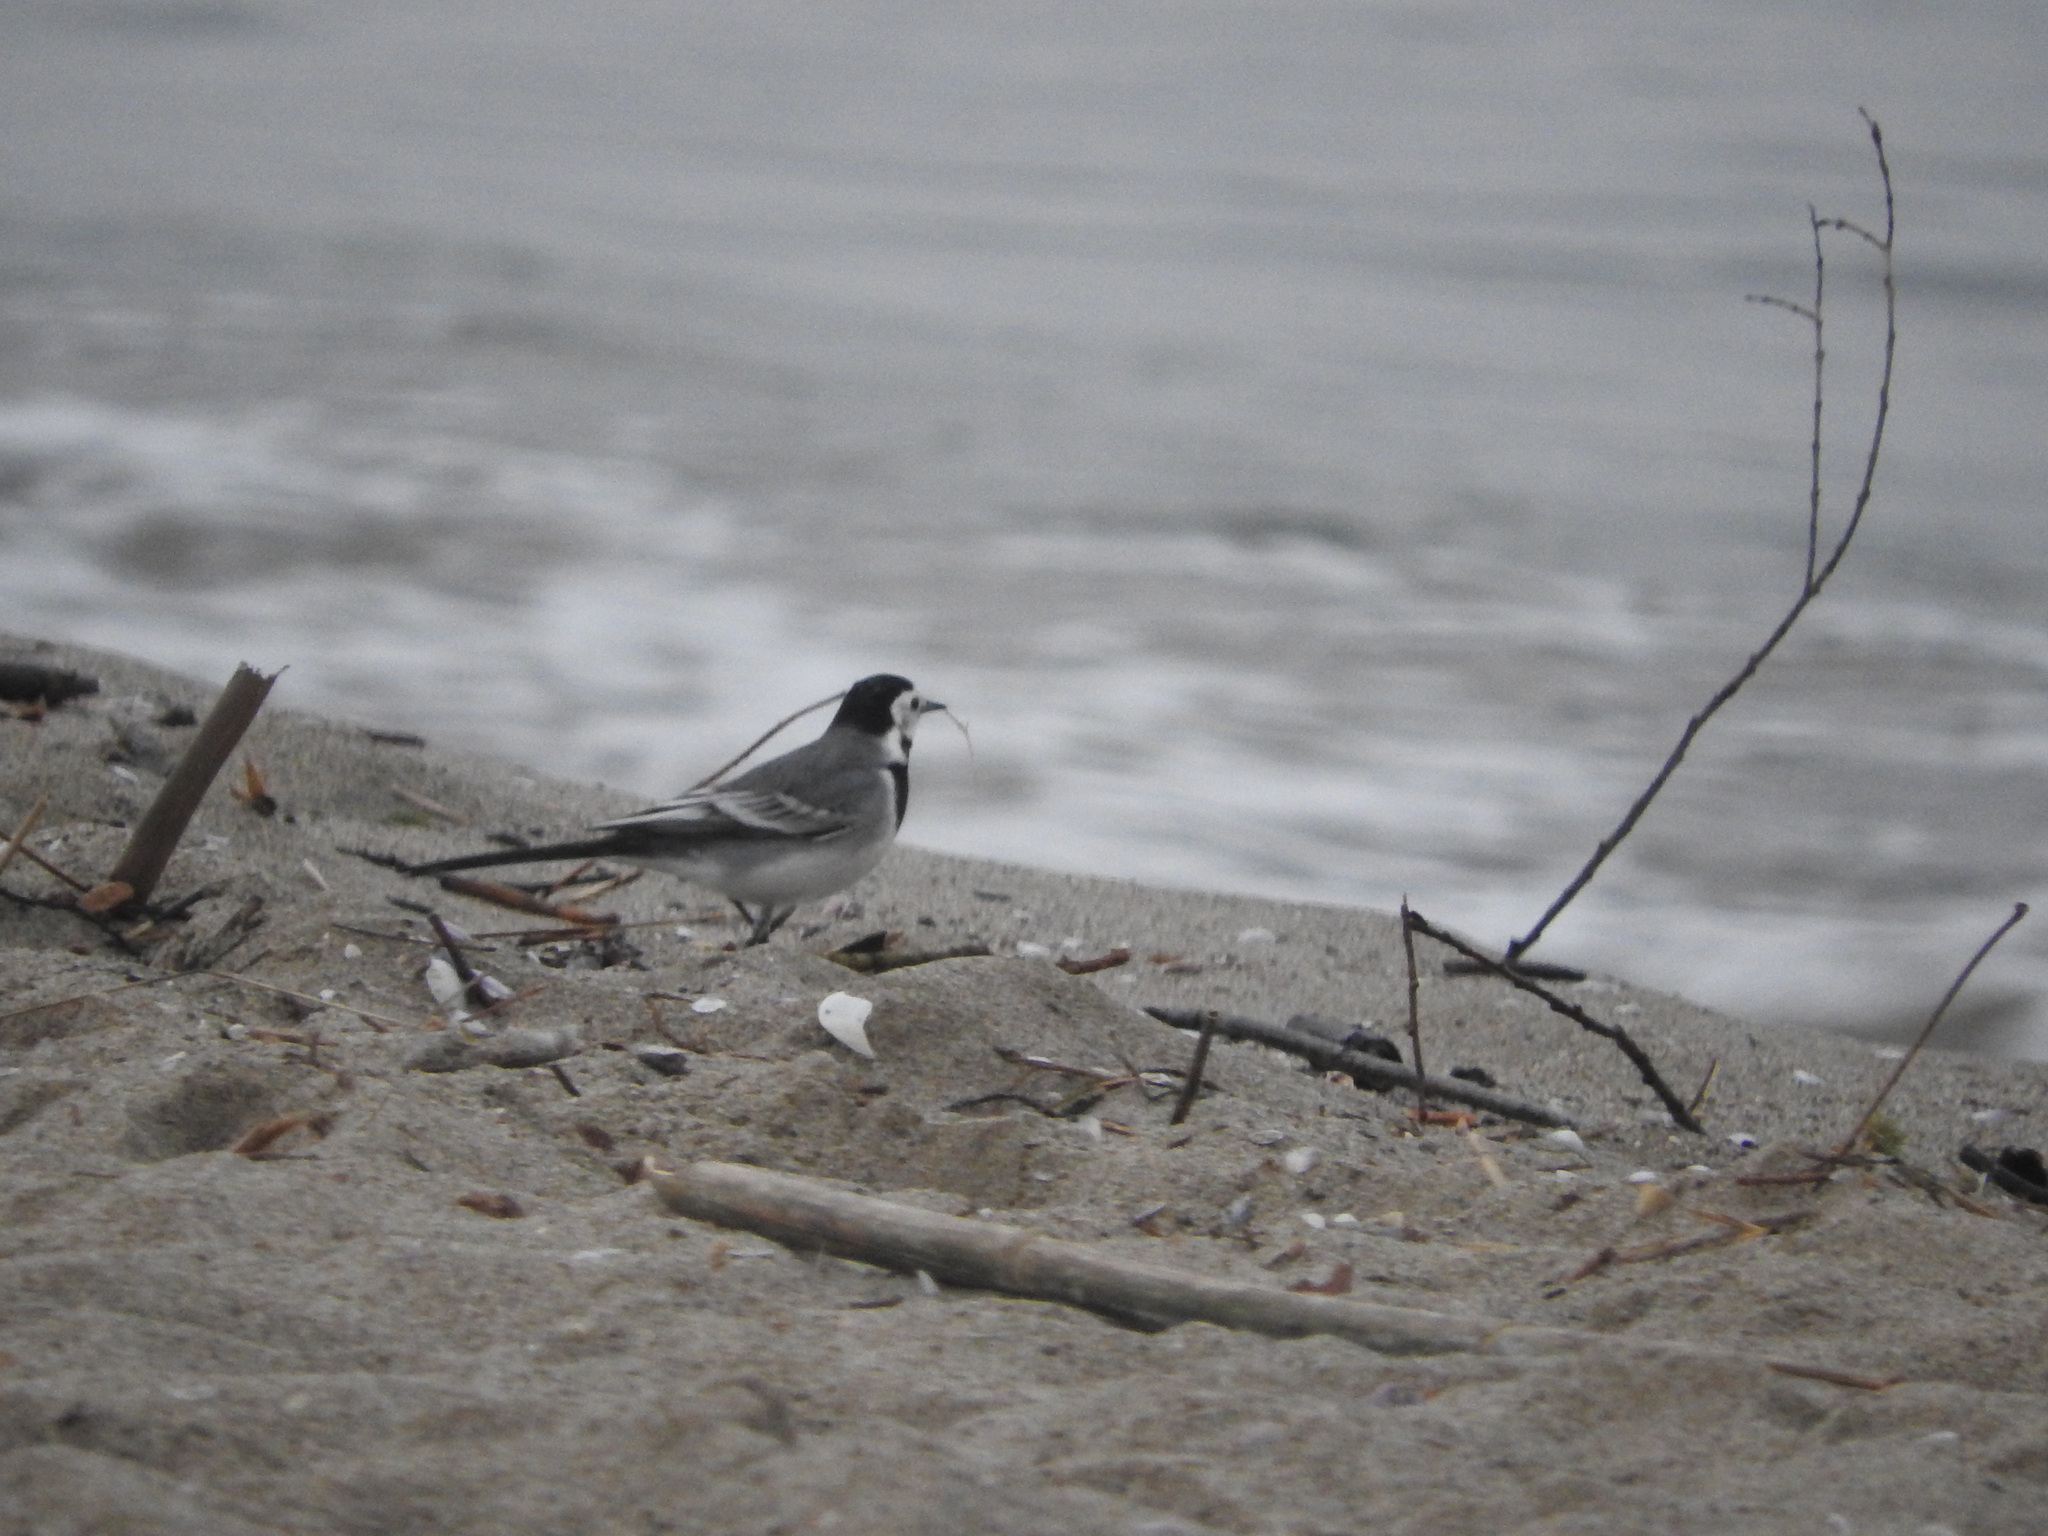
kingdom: Animalia
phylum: Chordata
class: Aves
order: Passeriformes
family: Motacillidae
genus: Motacilla
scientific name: Motacilla alba
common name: White wagtail
